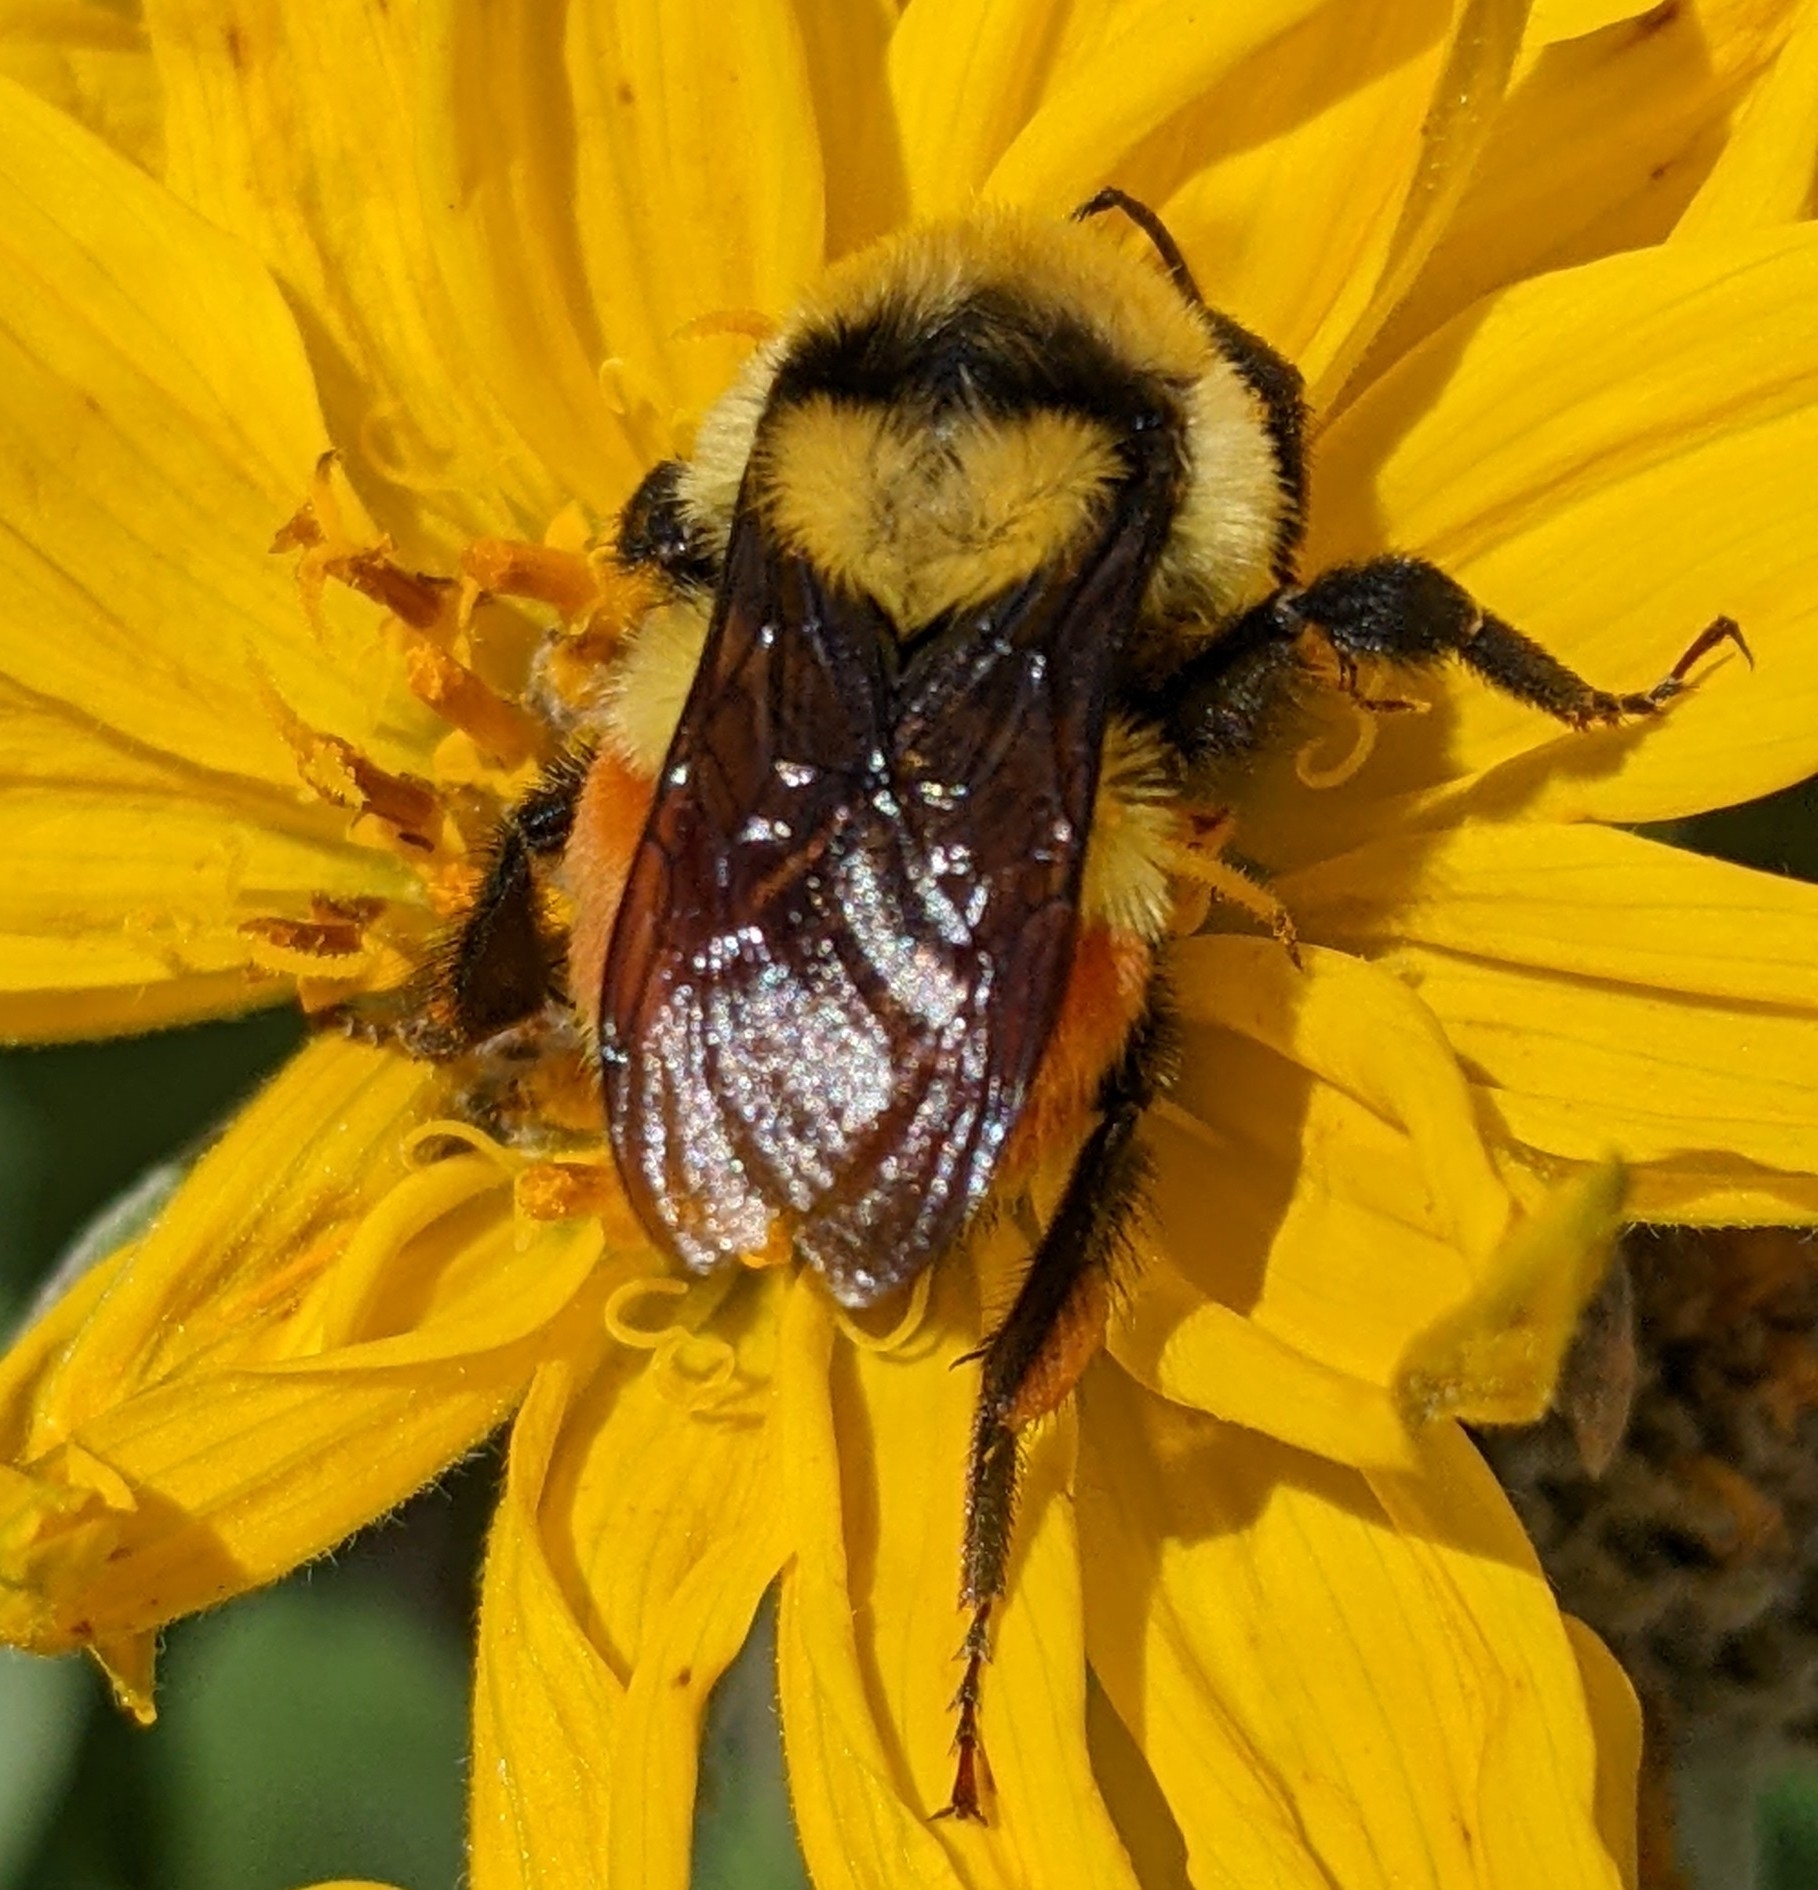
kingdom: Animalia
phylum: Arthropoda
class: Insecta
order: Hymenoptera
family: Apidae
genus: Bombus
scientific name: Bombus huntii
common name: Hunt bumble bee
